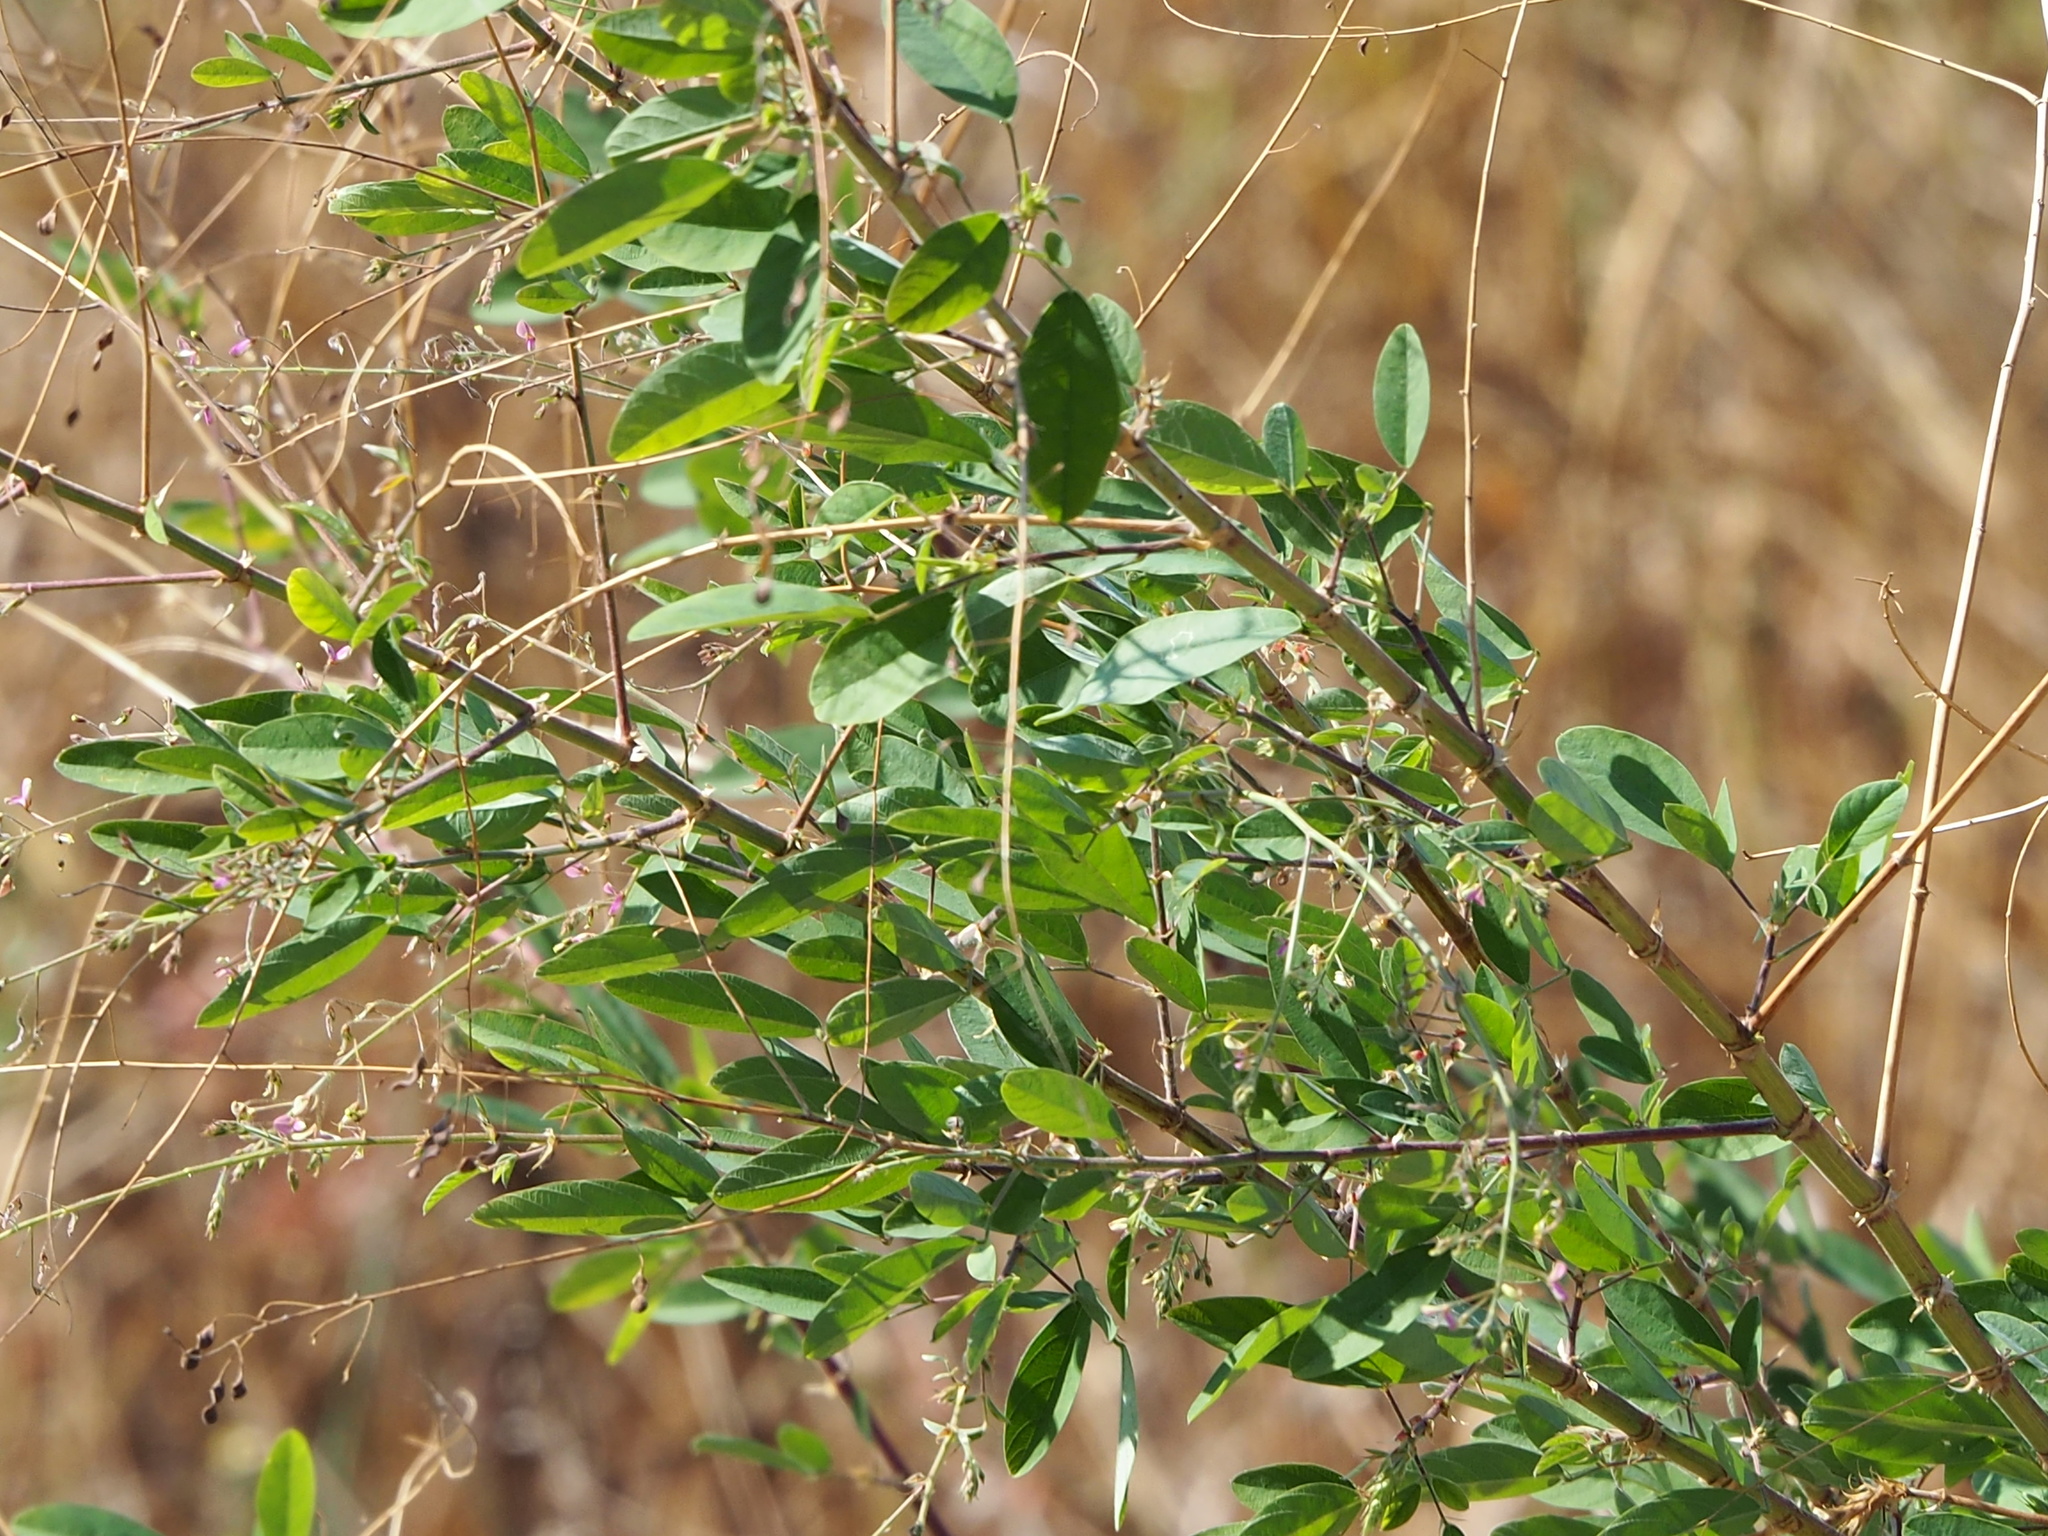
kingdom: Plantae
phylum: Tracheophyta
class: Magnoliopsida
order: Fabales
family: Fabaceae
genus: Desmodium
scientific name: Desmodium tortuosum
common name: Dixie ticktrefoil
